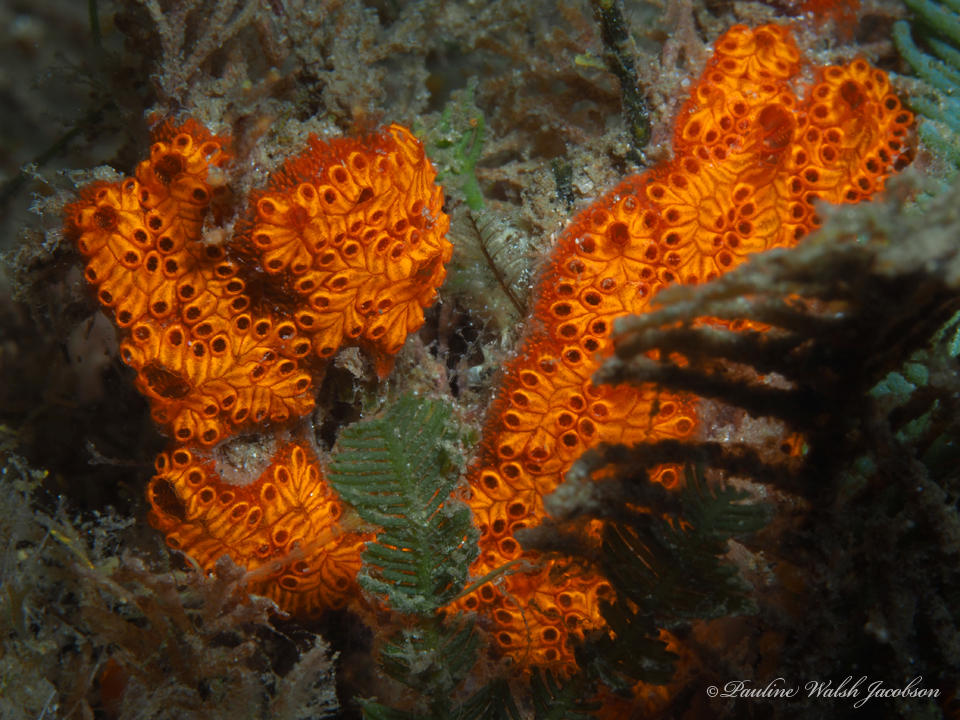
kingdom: Animalia
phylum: Chordata
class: Ascidiacea
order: Stolidobranchia
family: Styelidae
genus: Botrylloides
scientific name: Botrylloides niger
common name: Black synascidia
